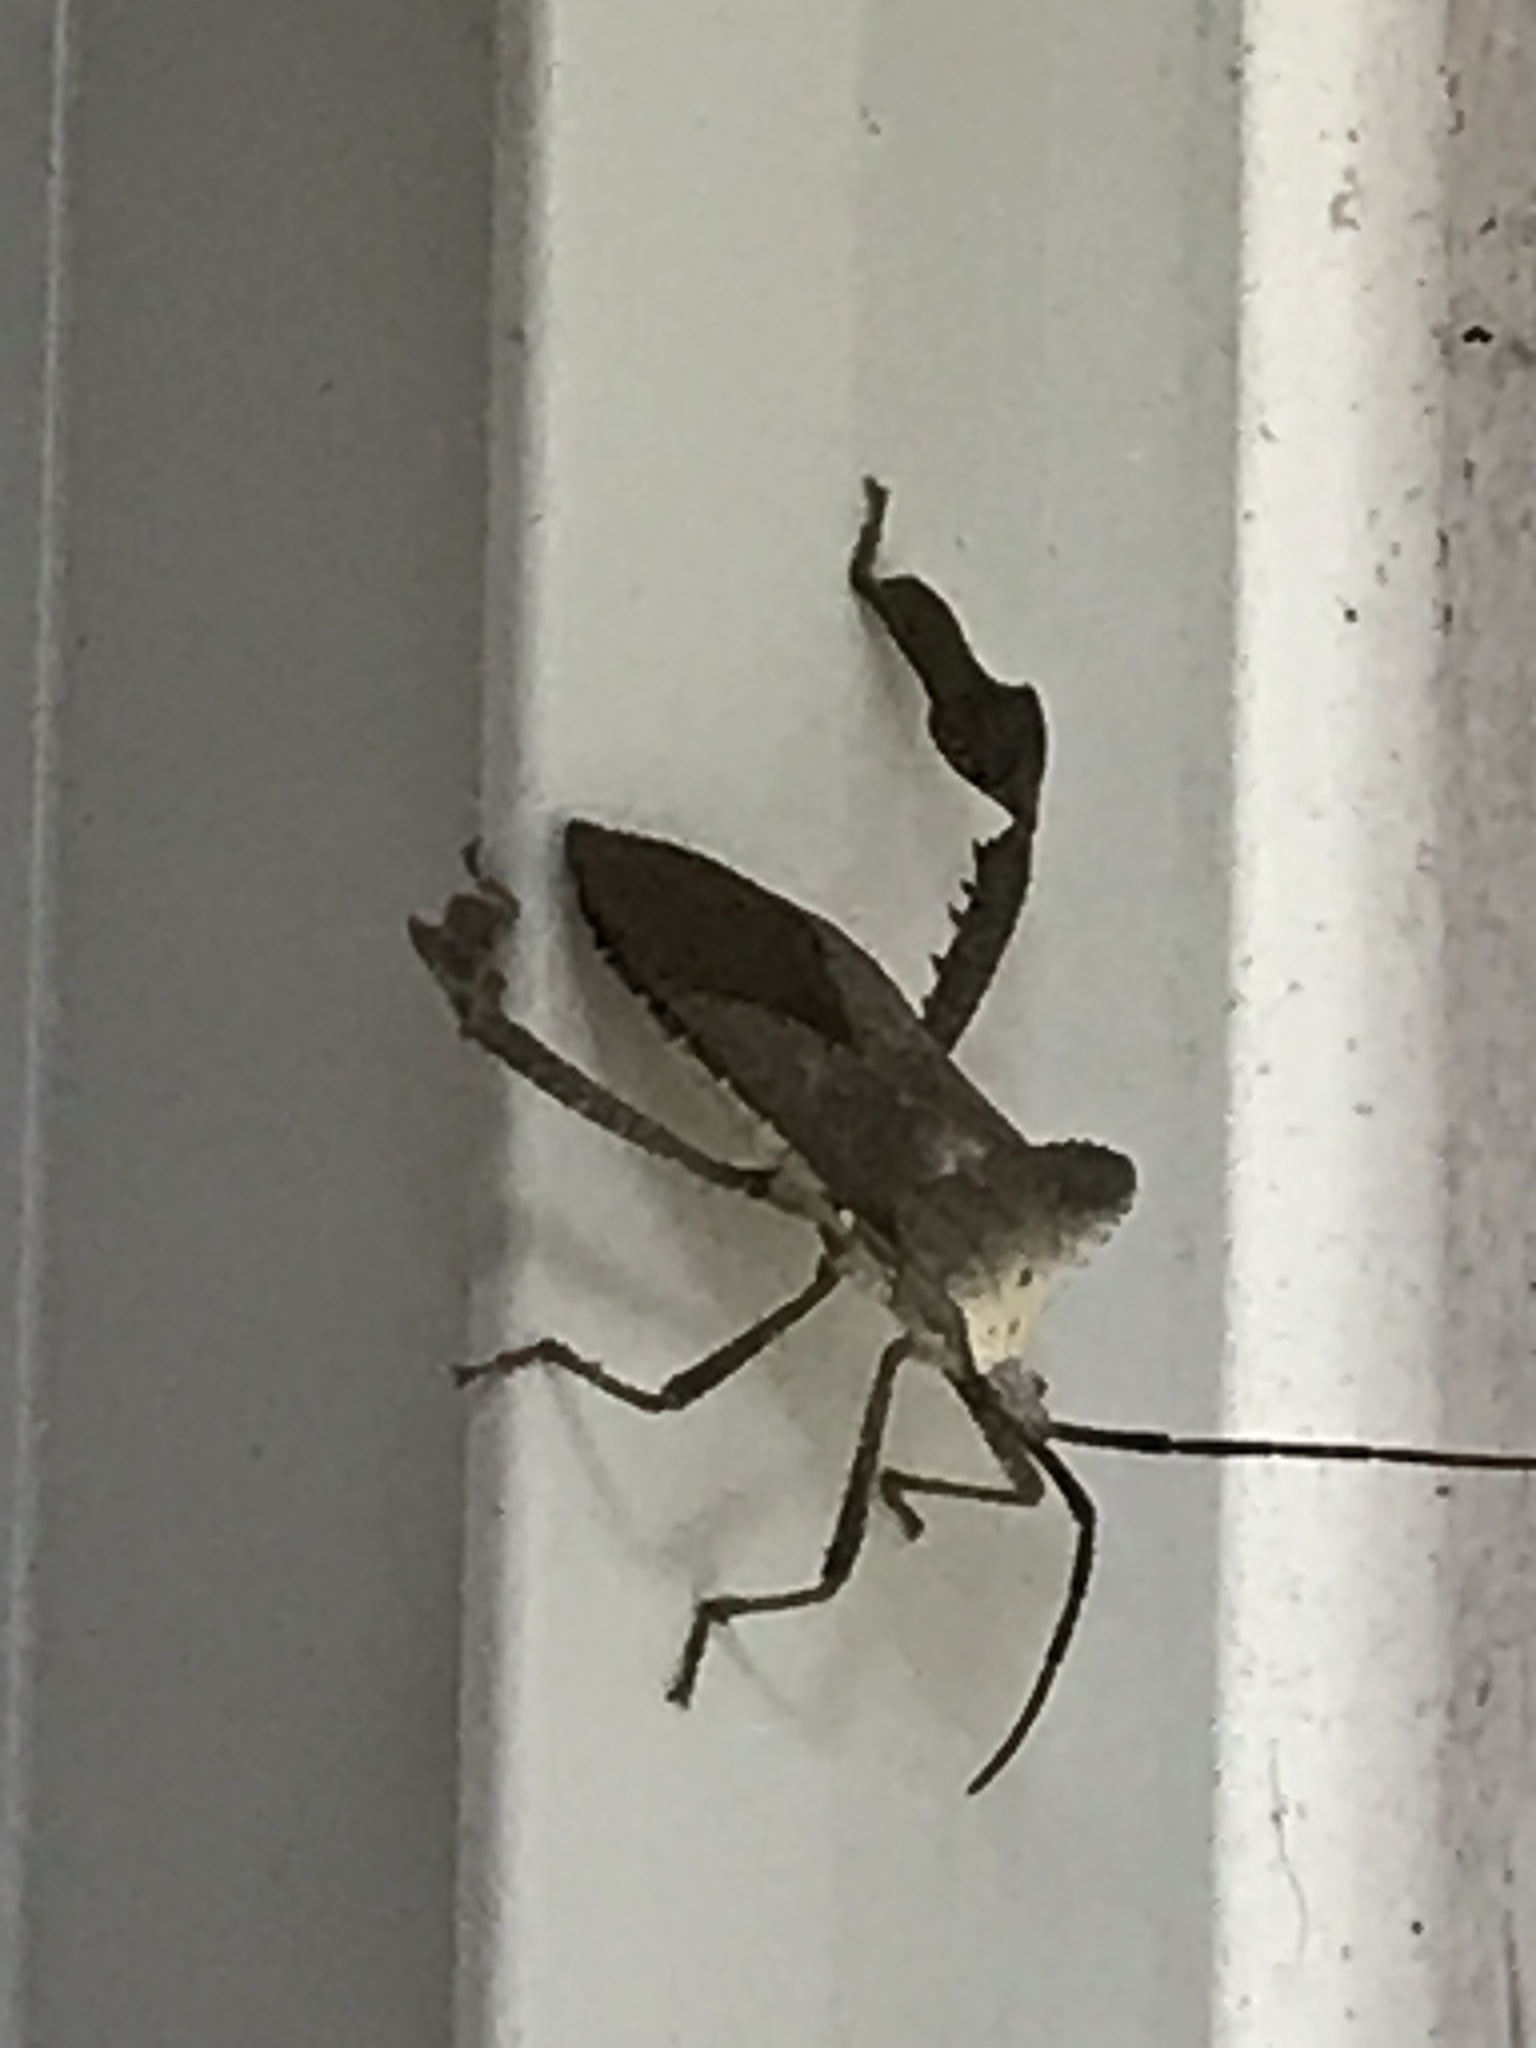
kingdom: Animalia
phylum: Arthropoda
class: Insecta
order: Hemiptera
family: Coreidae
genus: Acanthocephala
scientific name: Acanthocephala declivis
